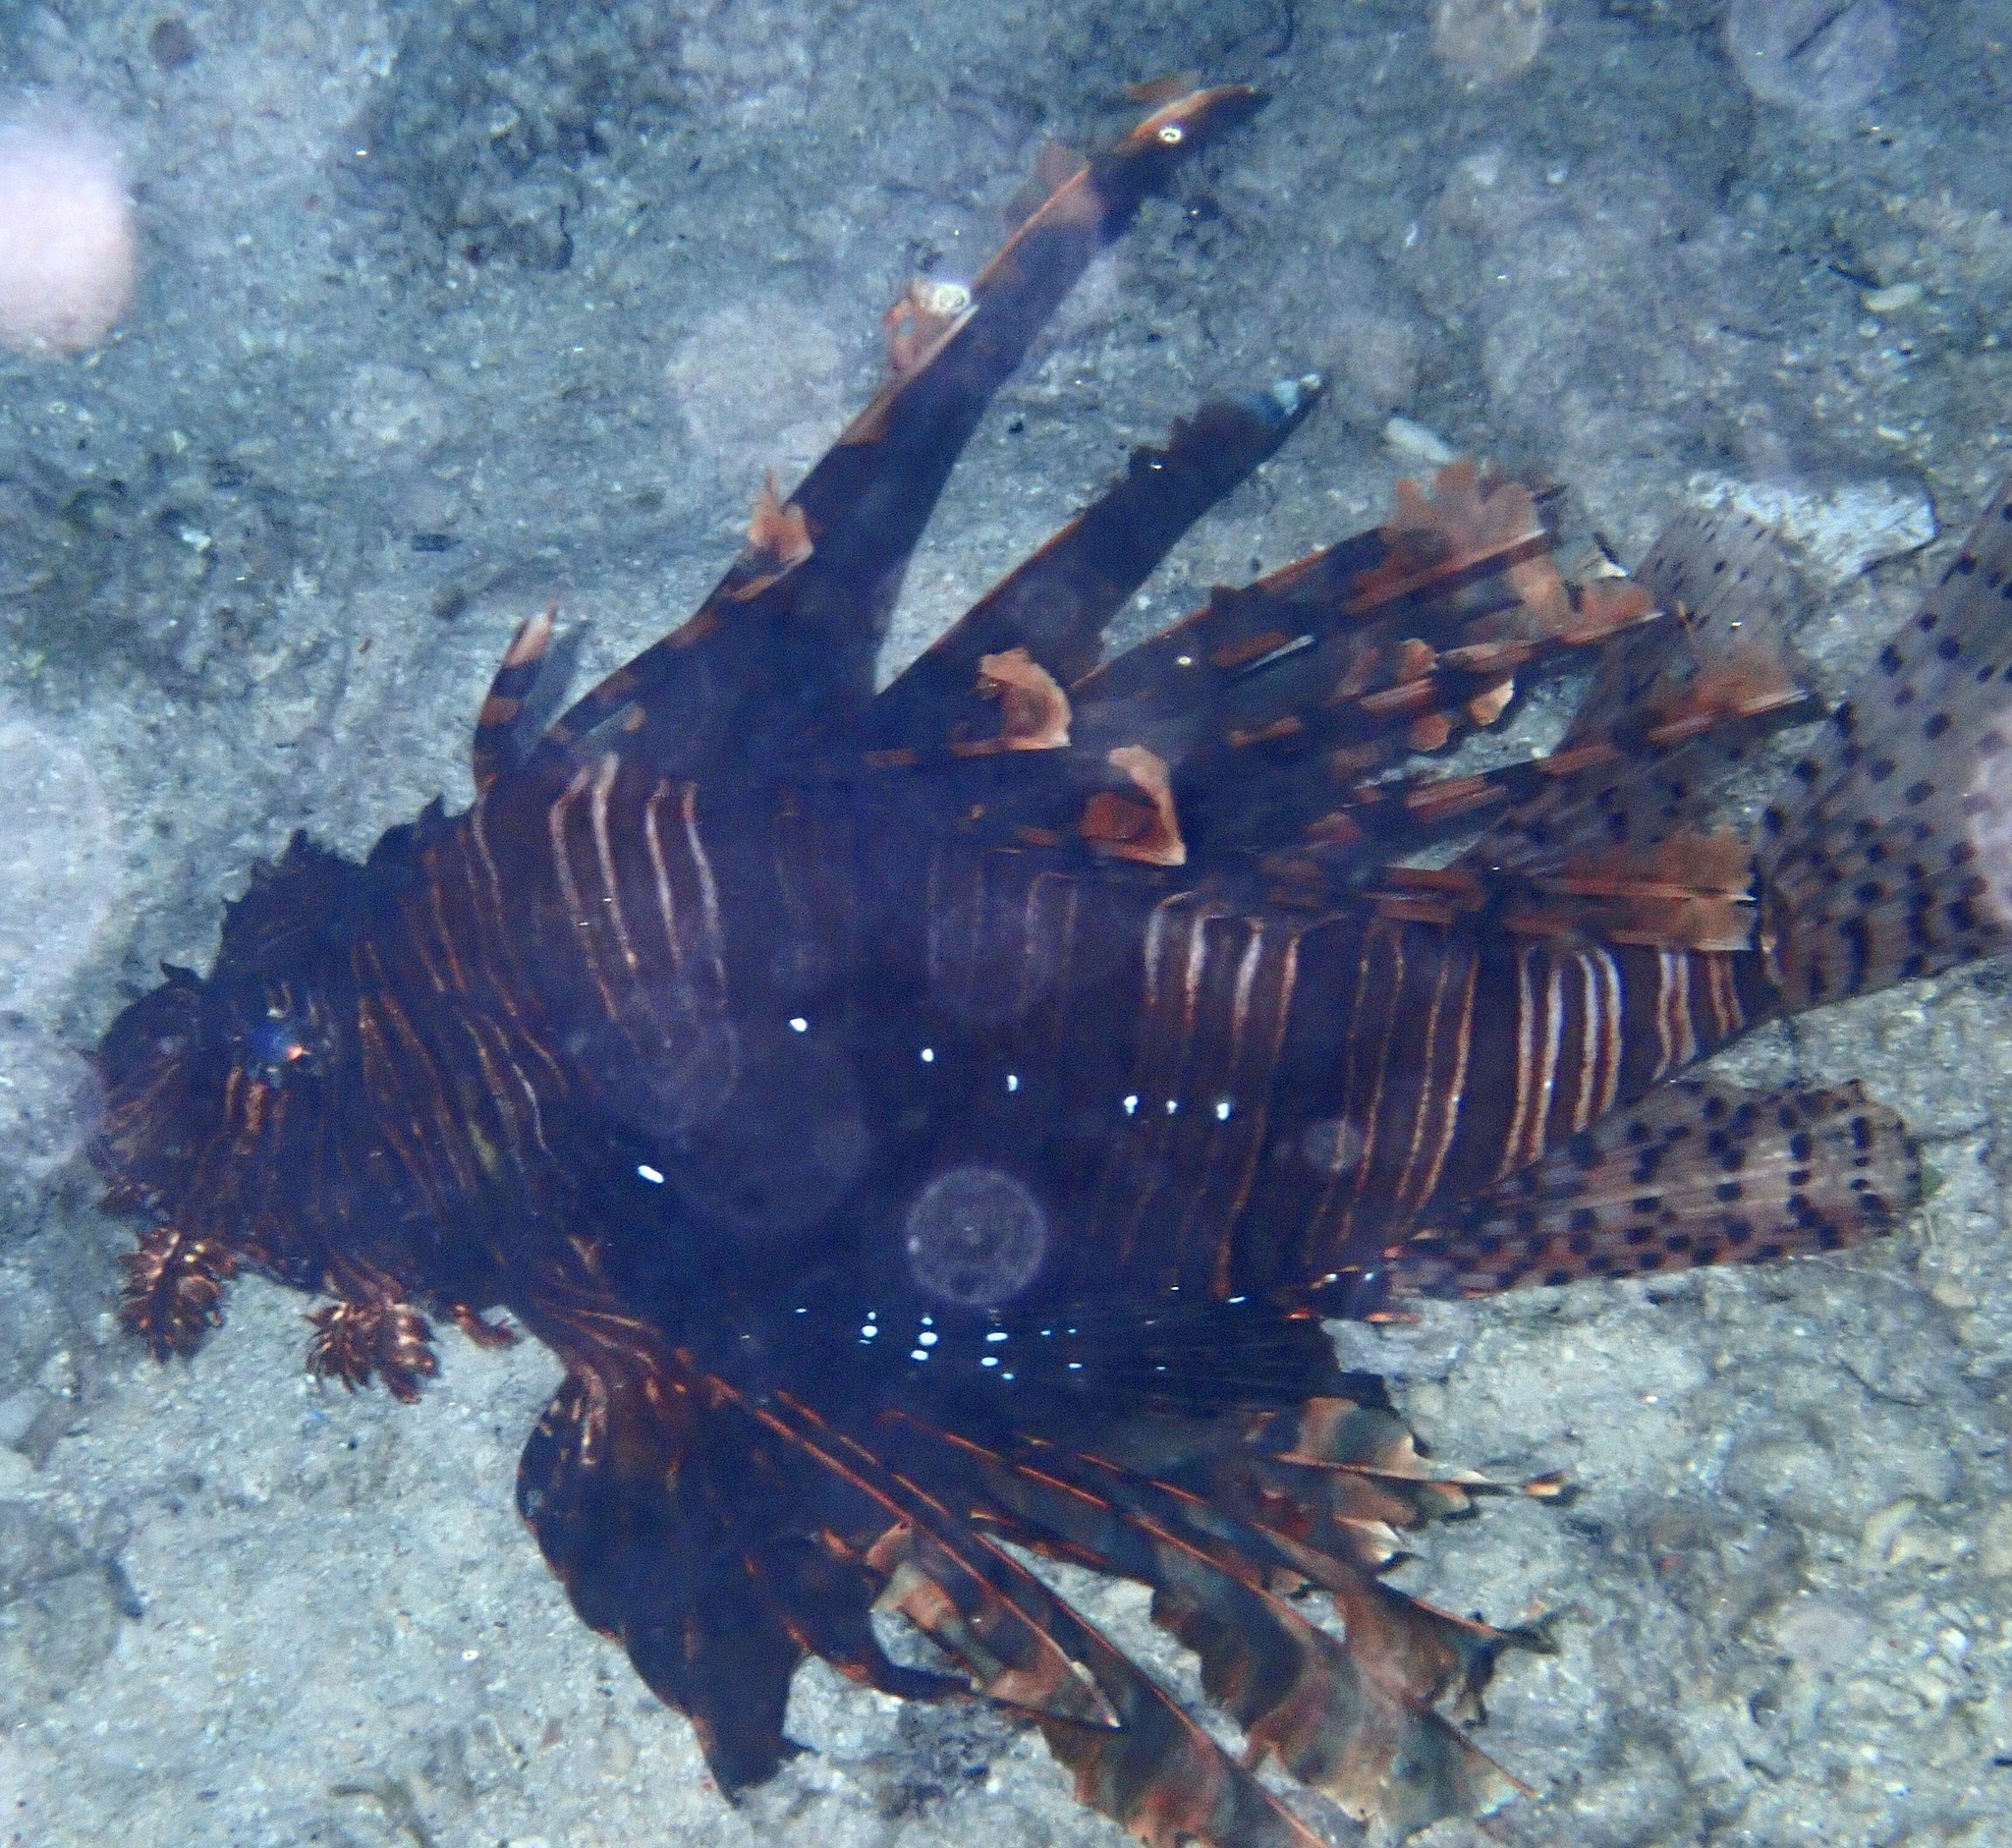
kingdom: Animalia
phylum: Chordata
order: Scorpaeniformes
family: Scorpaenidae
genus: Pterois
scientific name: Pterois volitans
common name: Lionfish
